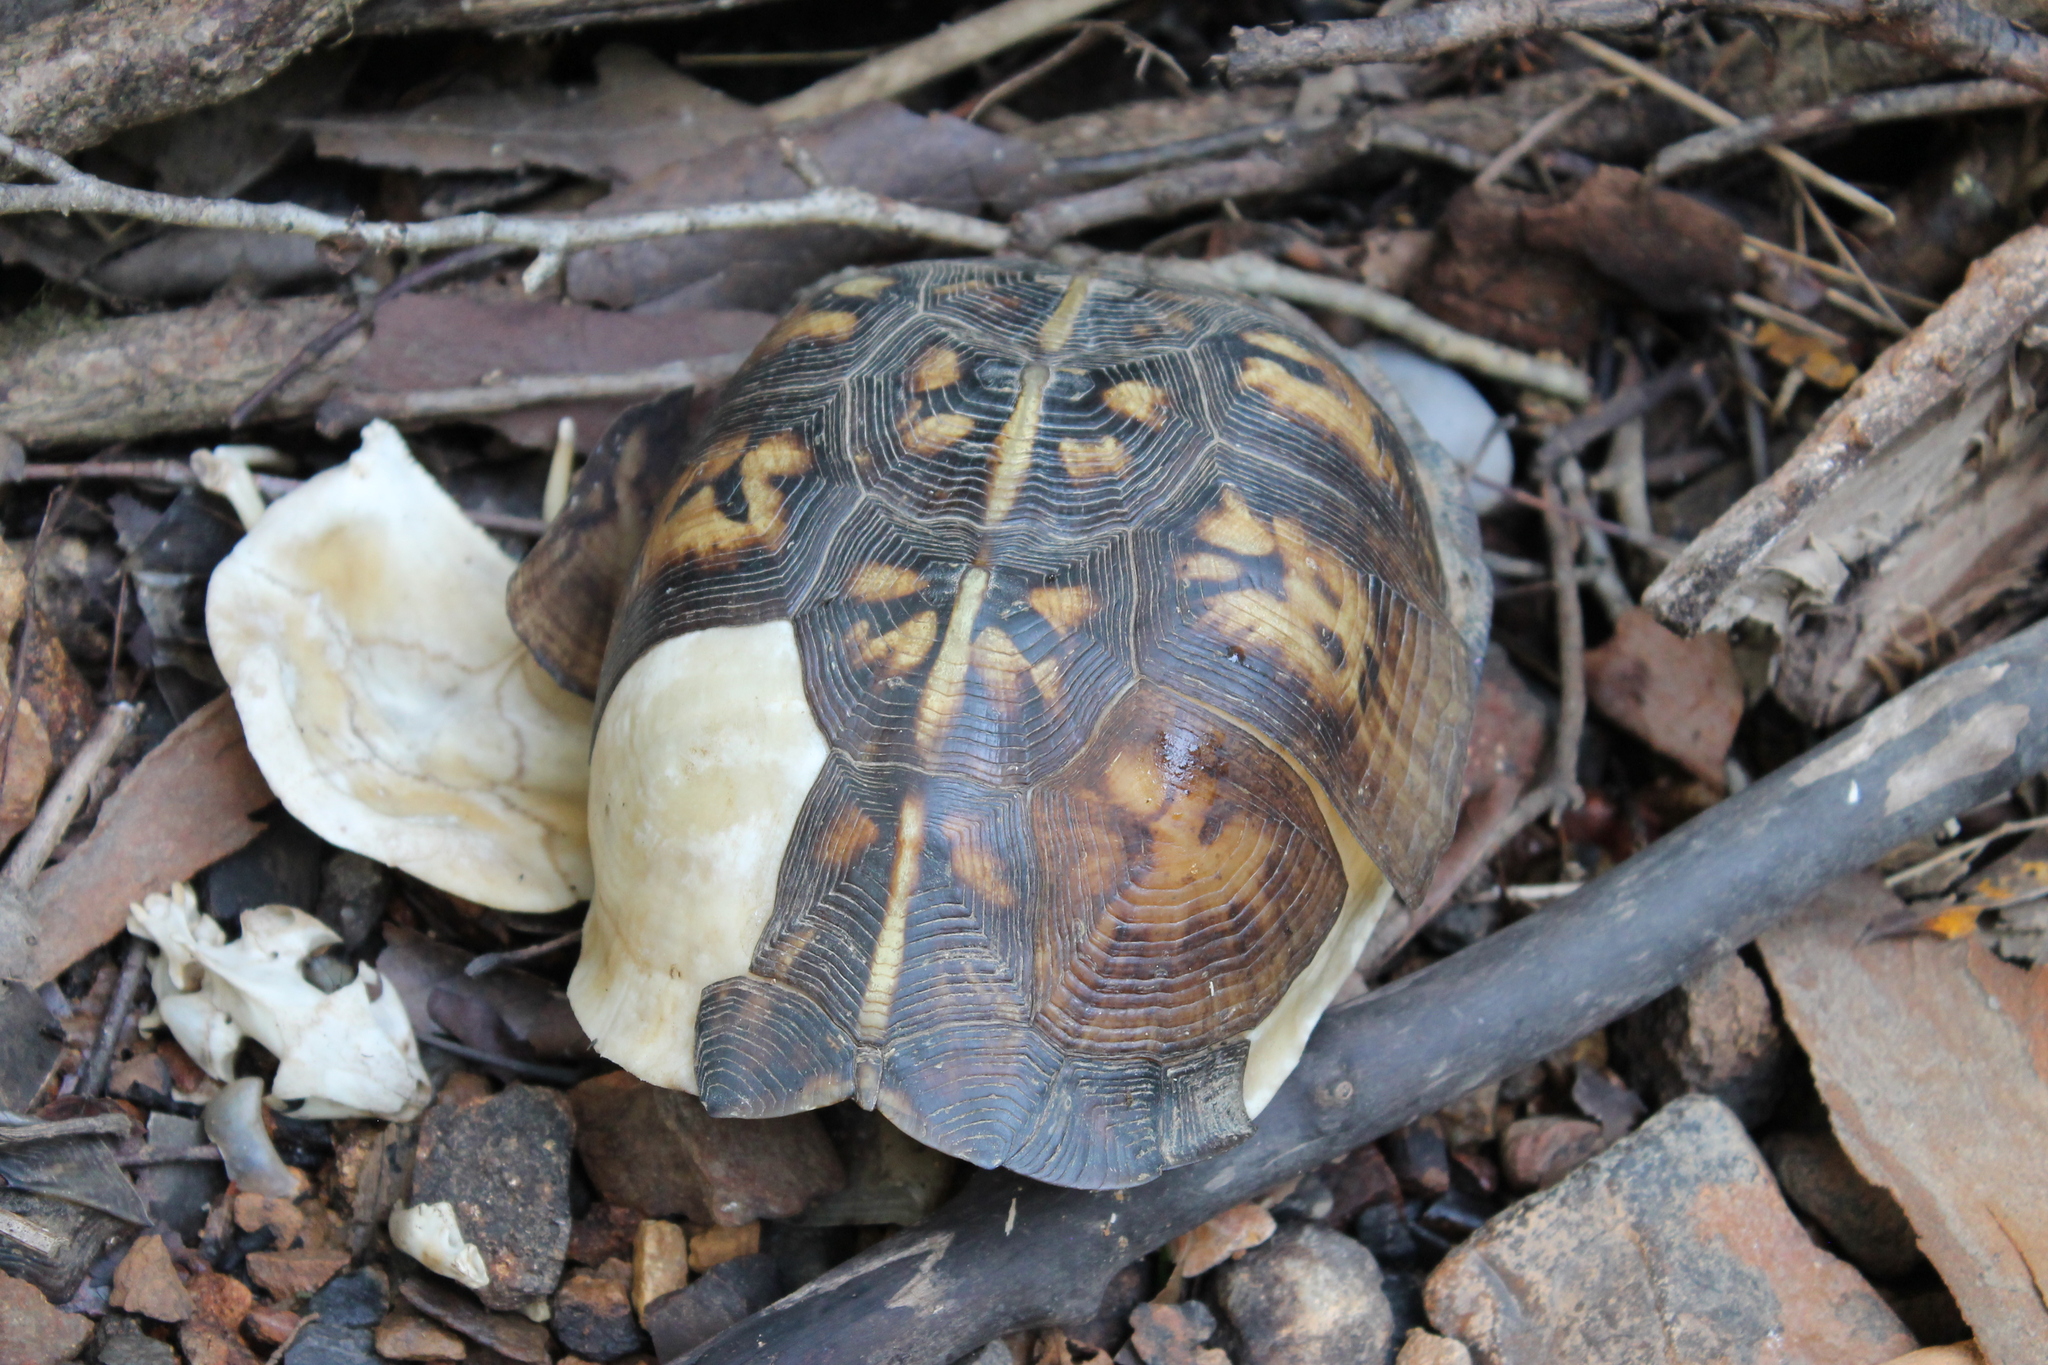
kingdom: Animalia
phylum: Chordata
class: Testudines
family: Emydidae
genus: Terrapene
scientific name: Terrapene carolina
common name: Common box turtle
